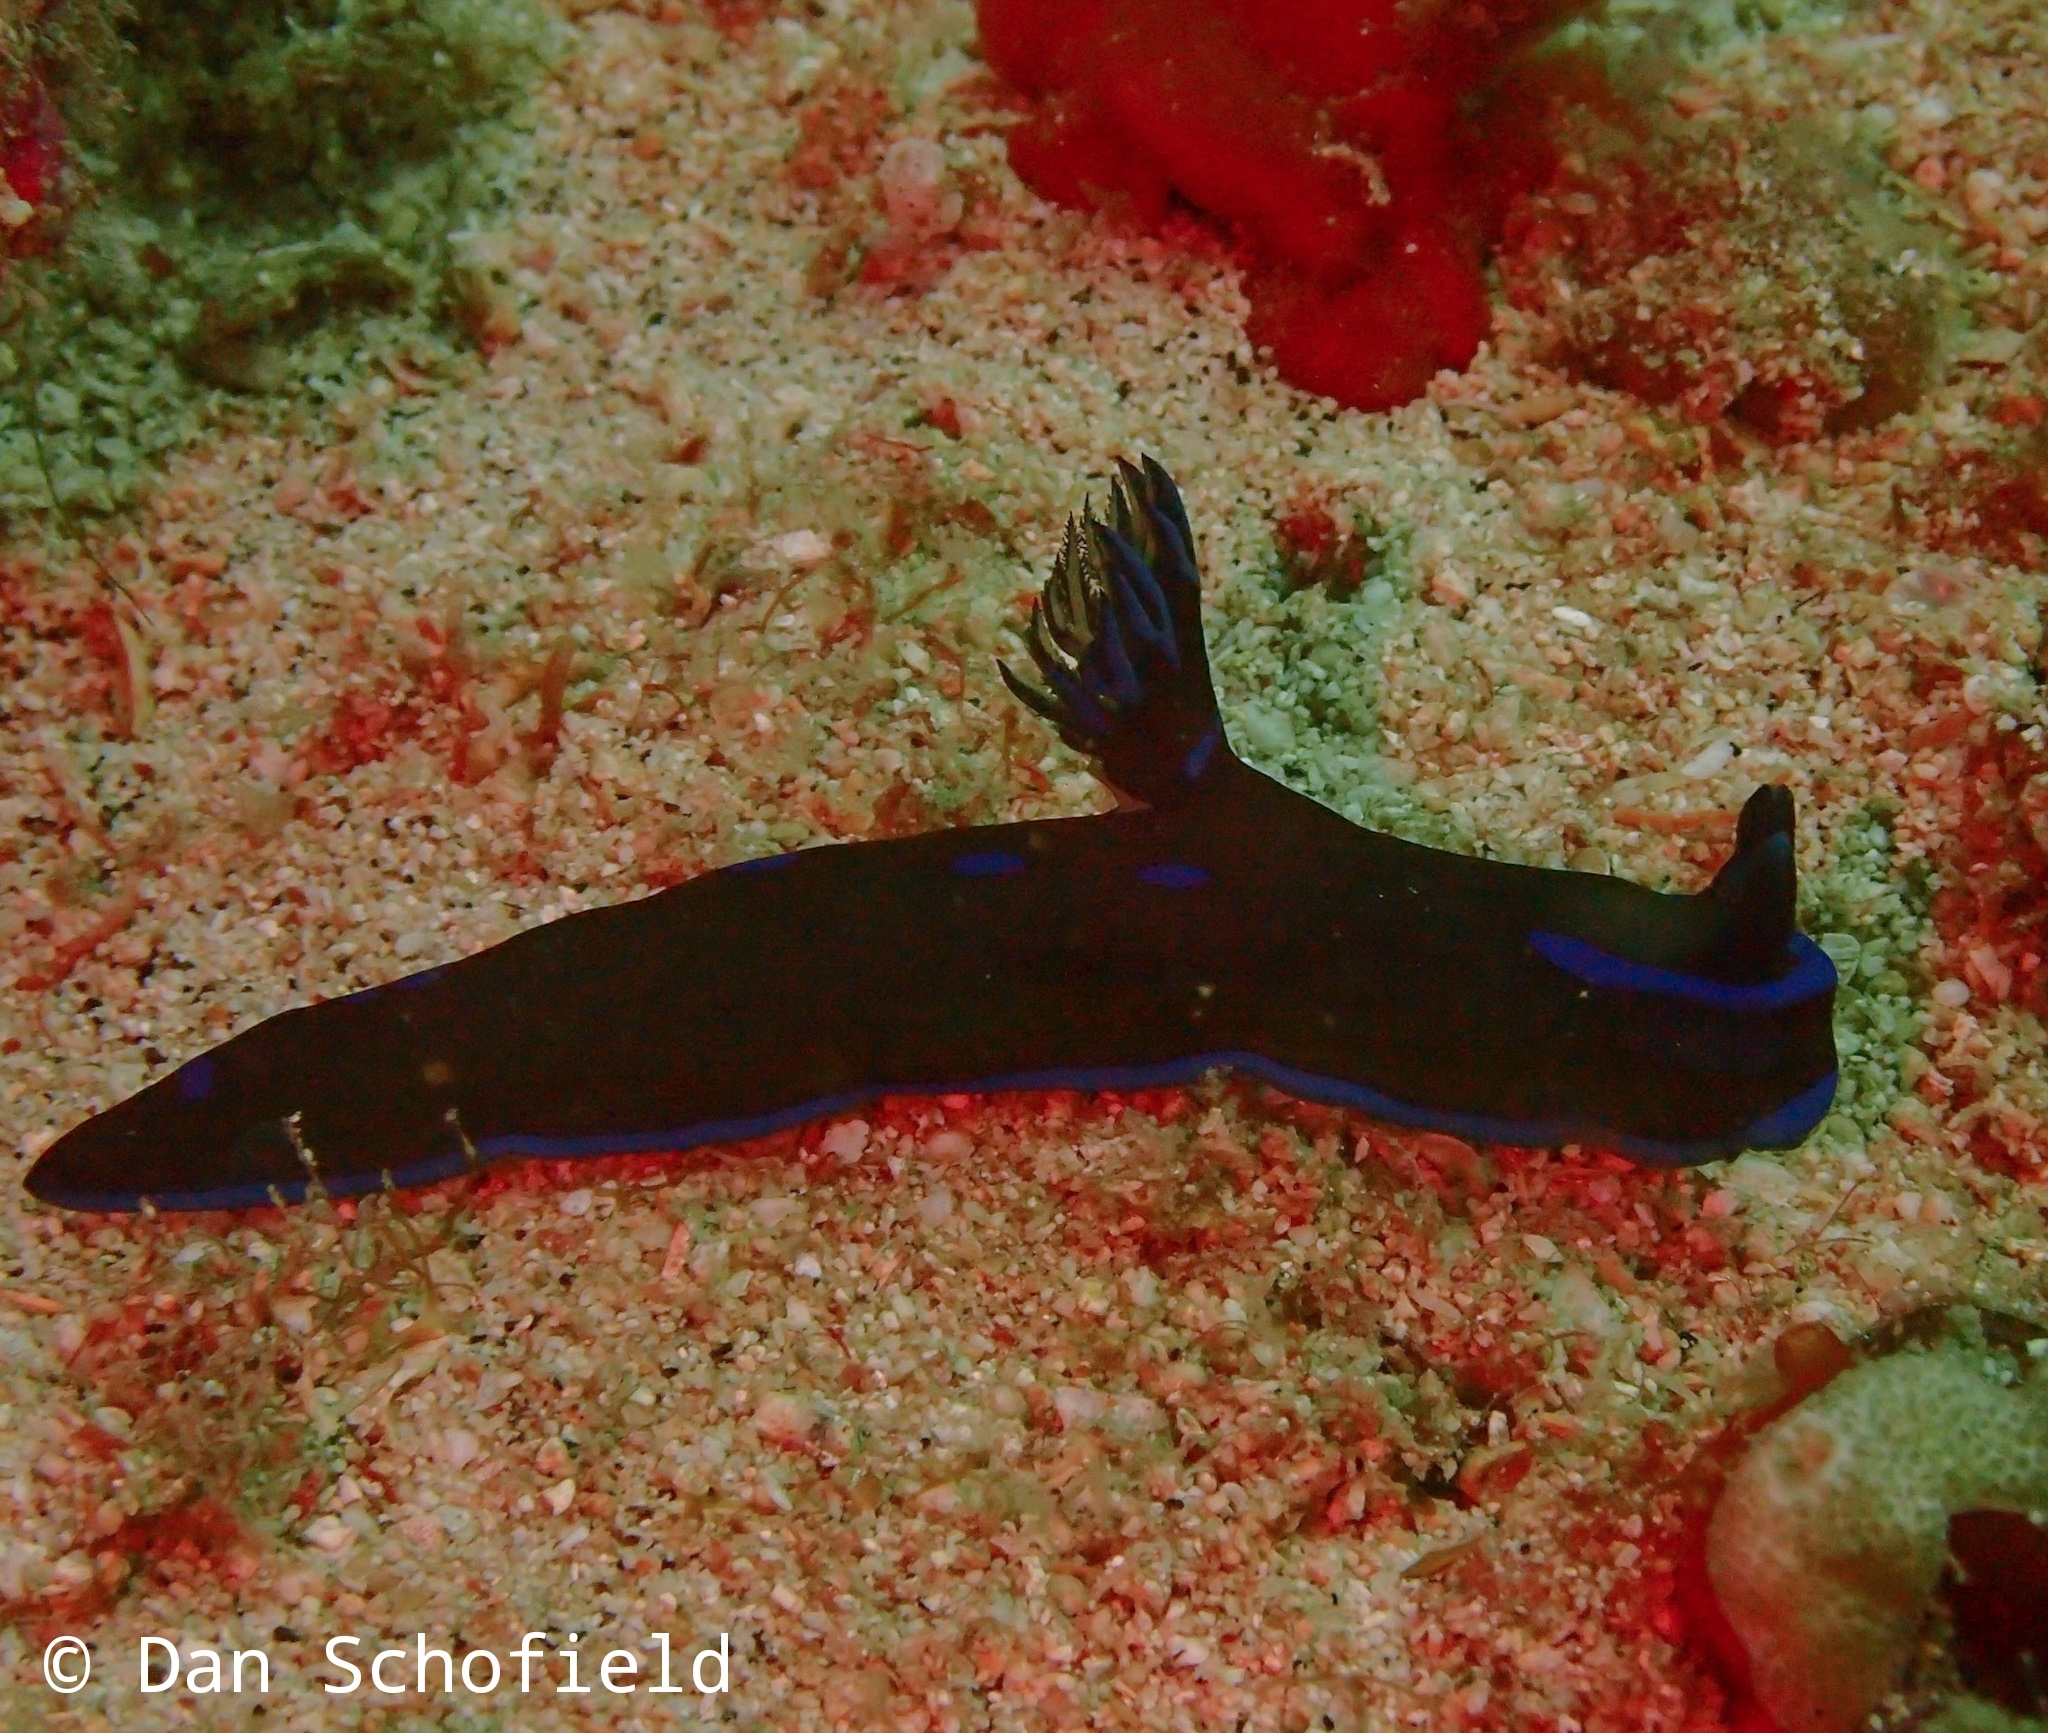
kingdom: Animalia
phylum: Mollusca
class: Gastropoda
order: Nudibranchia
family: Polyceridae
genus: Tambja
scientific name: Tambja morosa
